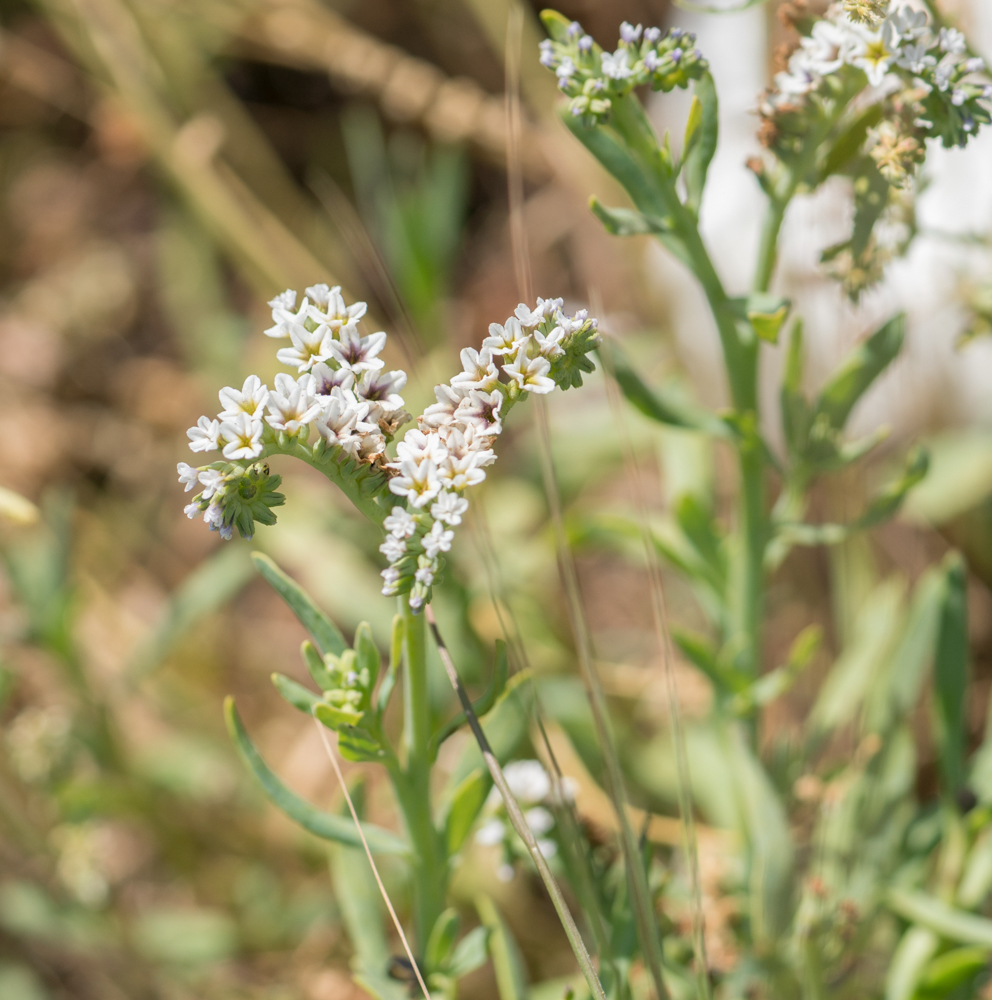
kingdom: Plantae
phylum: Tracheophyta
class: Magnoliopsida
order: Boraginales
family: Heliotropiaceae
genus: Heliotropium
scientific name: Heliotropium curassavicum
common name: Seaside heliotrope
